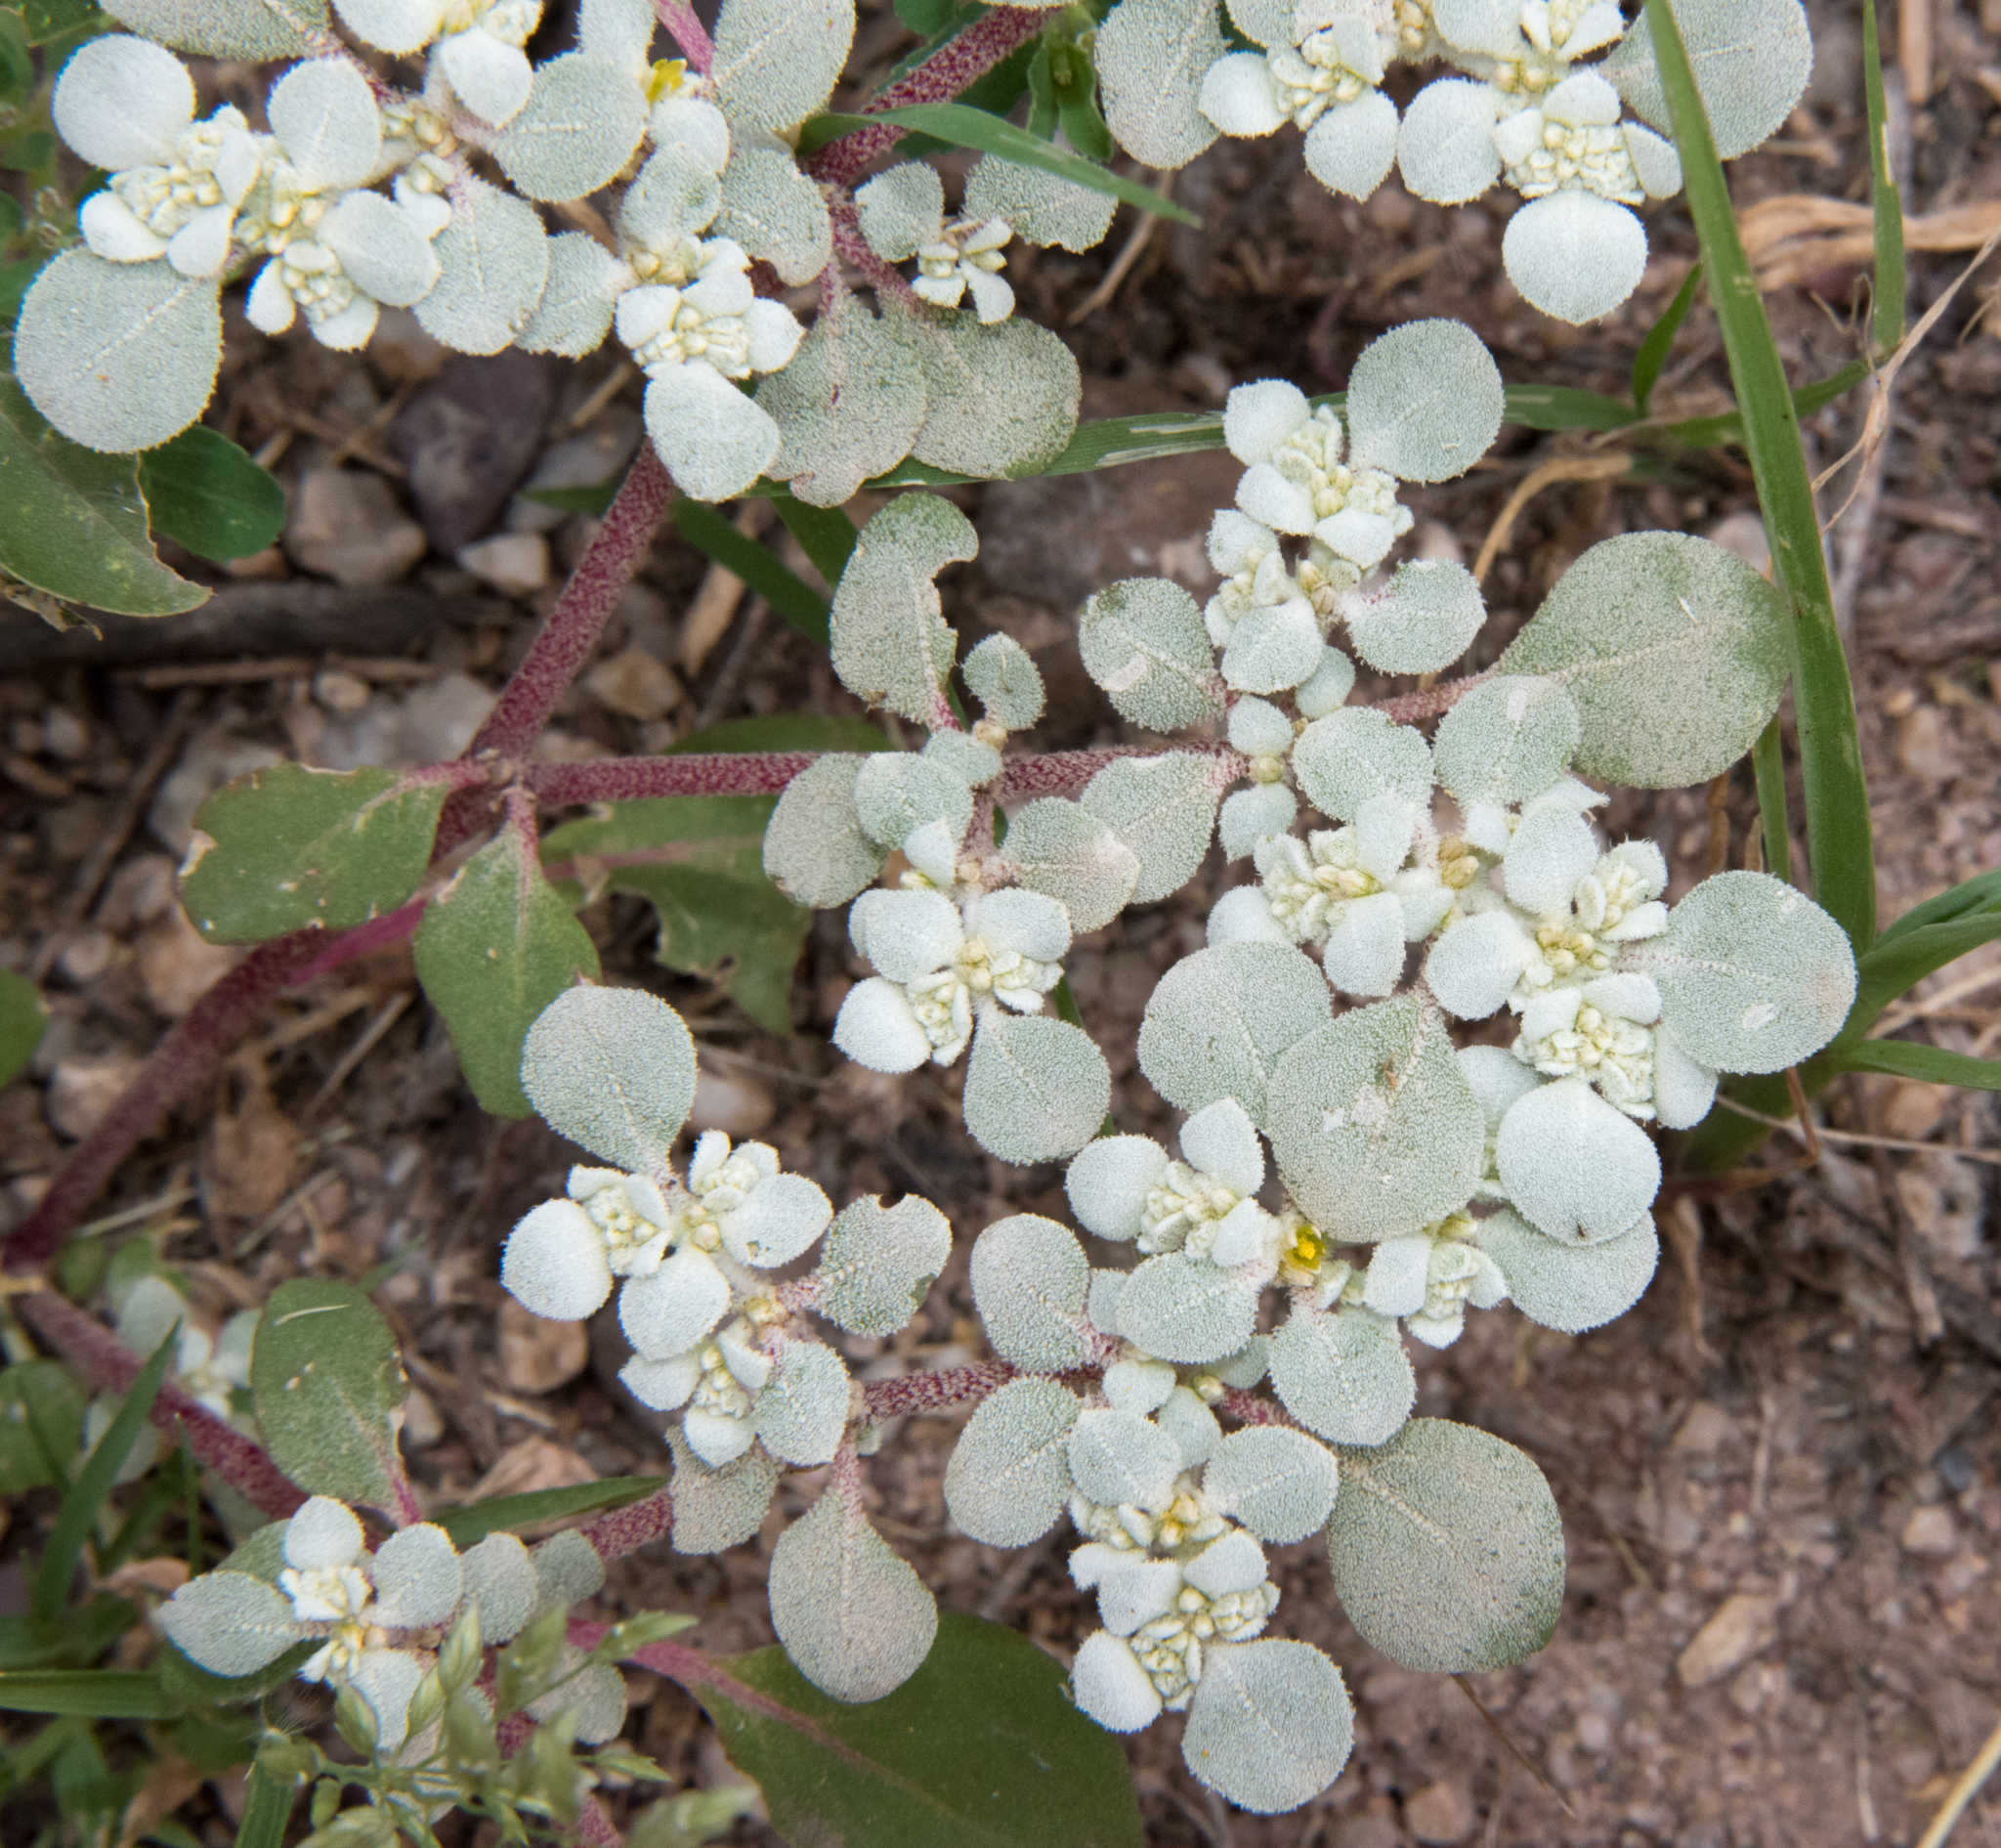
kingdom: Plantae
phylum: Tracheophyta
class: Magnoliopsida
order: Caryophyllales
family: Amaranthaceae
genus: Tidestromia
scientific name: Tidestromia lanuginosa
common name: Woolly tidestromia
